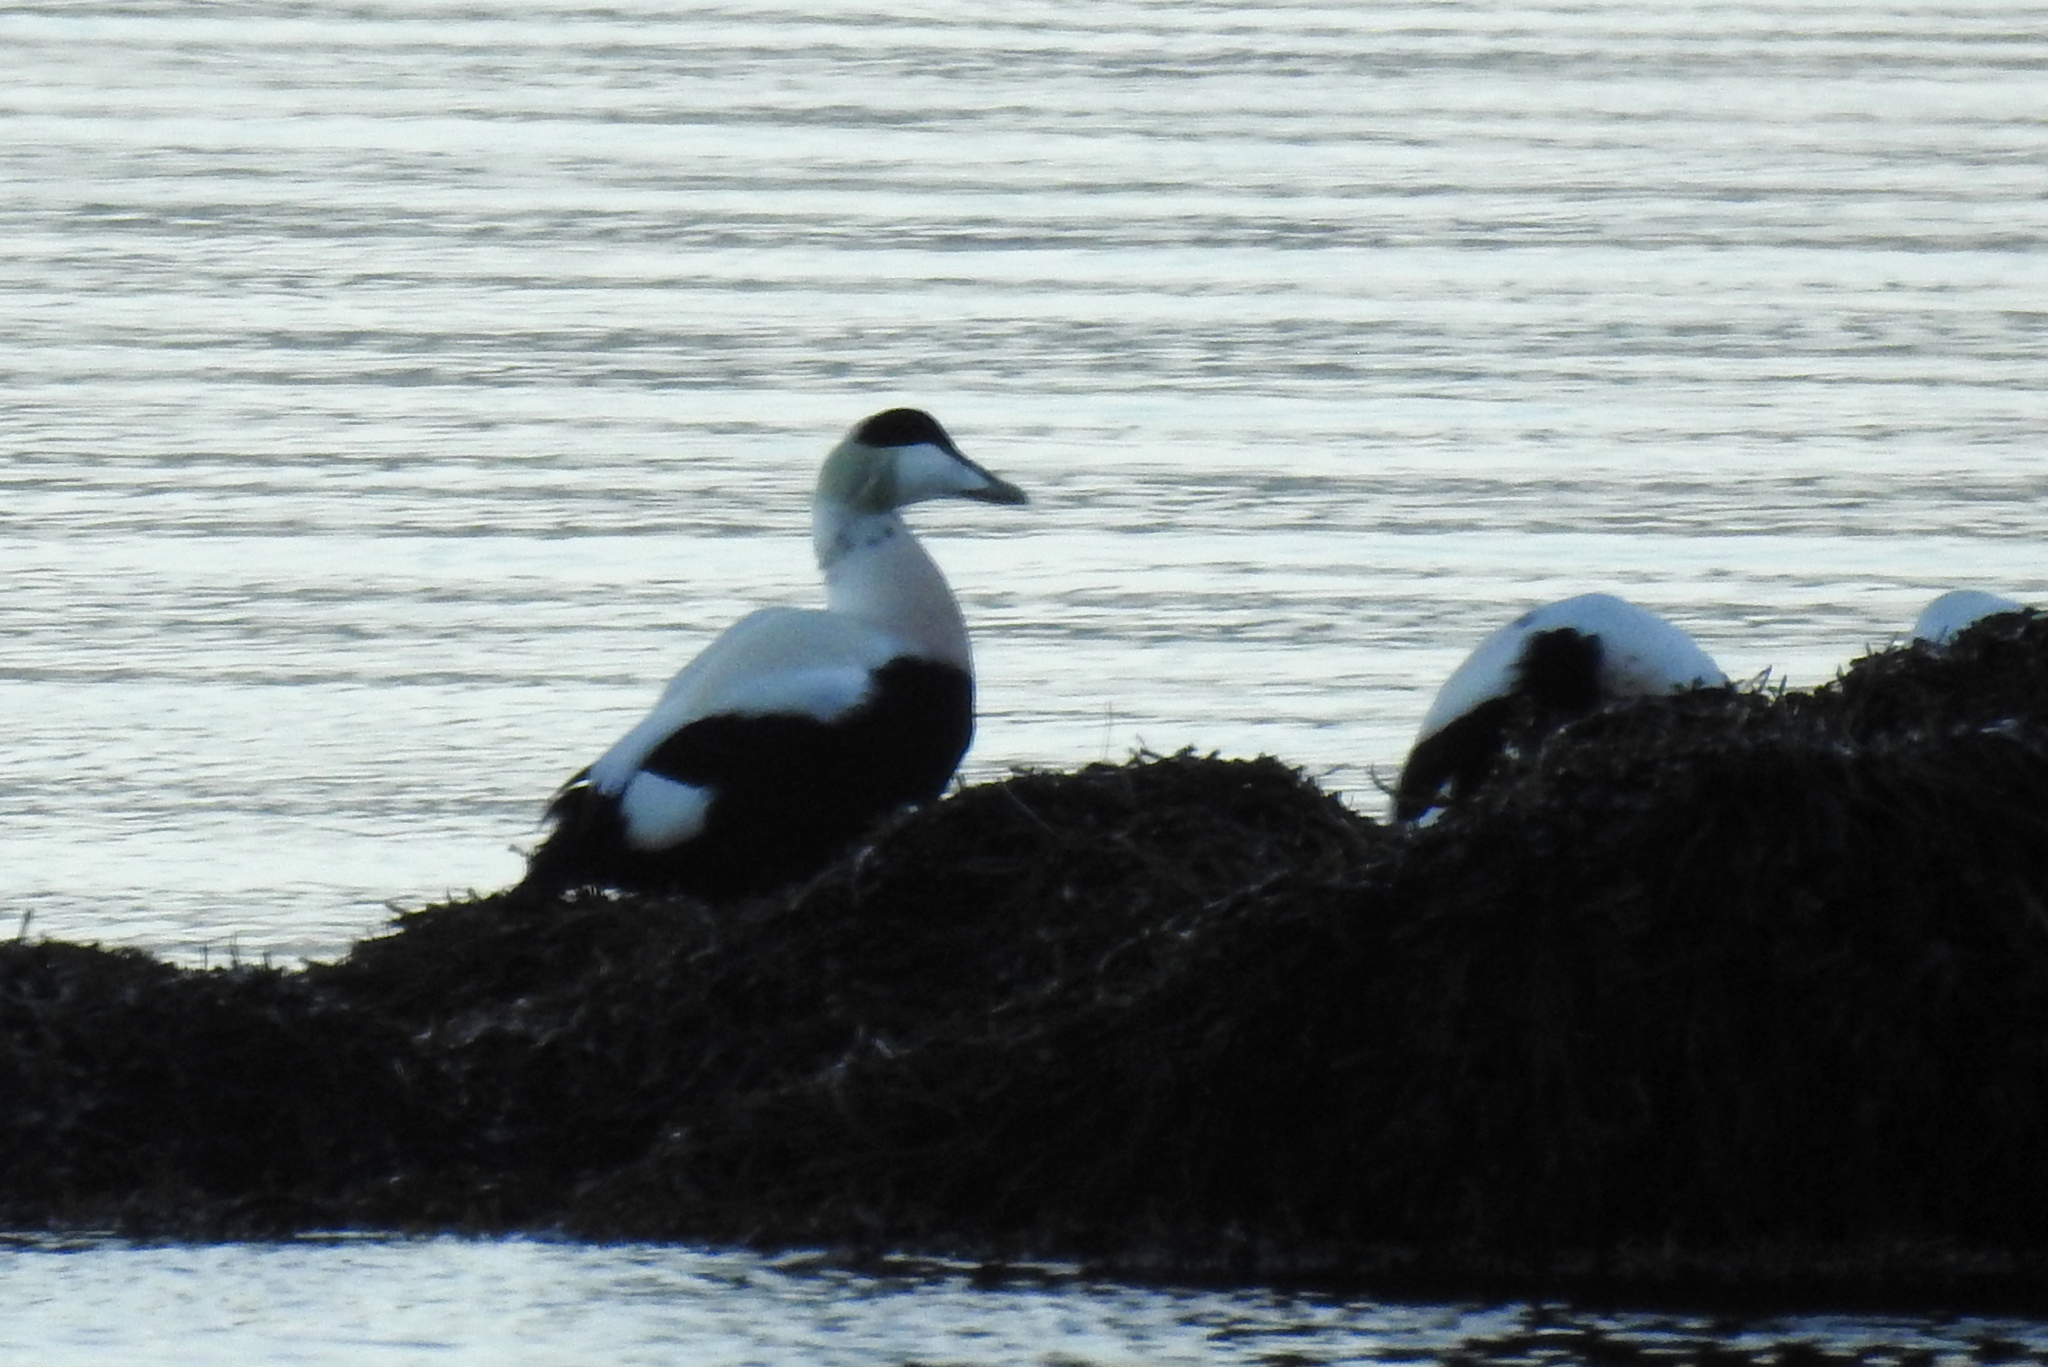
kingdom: Animalia
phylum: Chordata
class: Aves
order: Anseriformes
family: Anatidae
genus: Somateria
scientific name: Somateria mollissima
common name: Common eider
